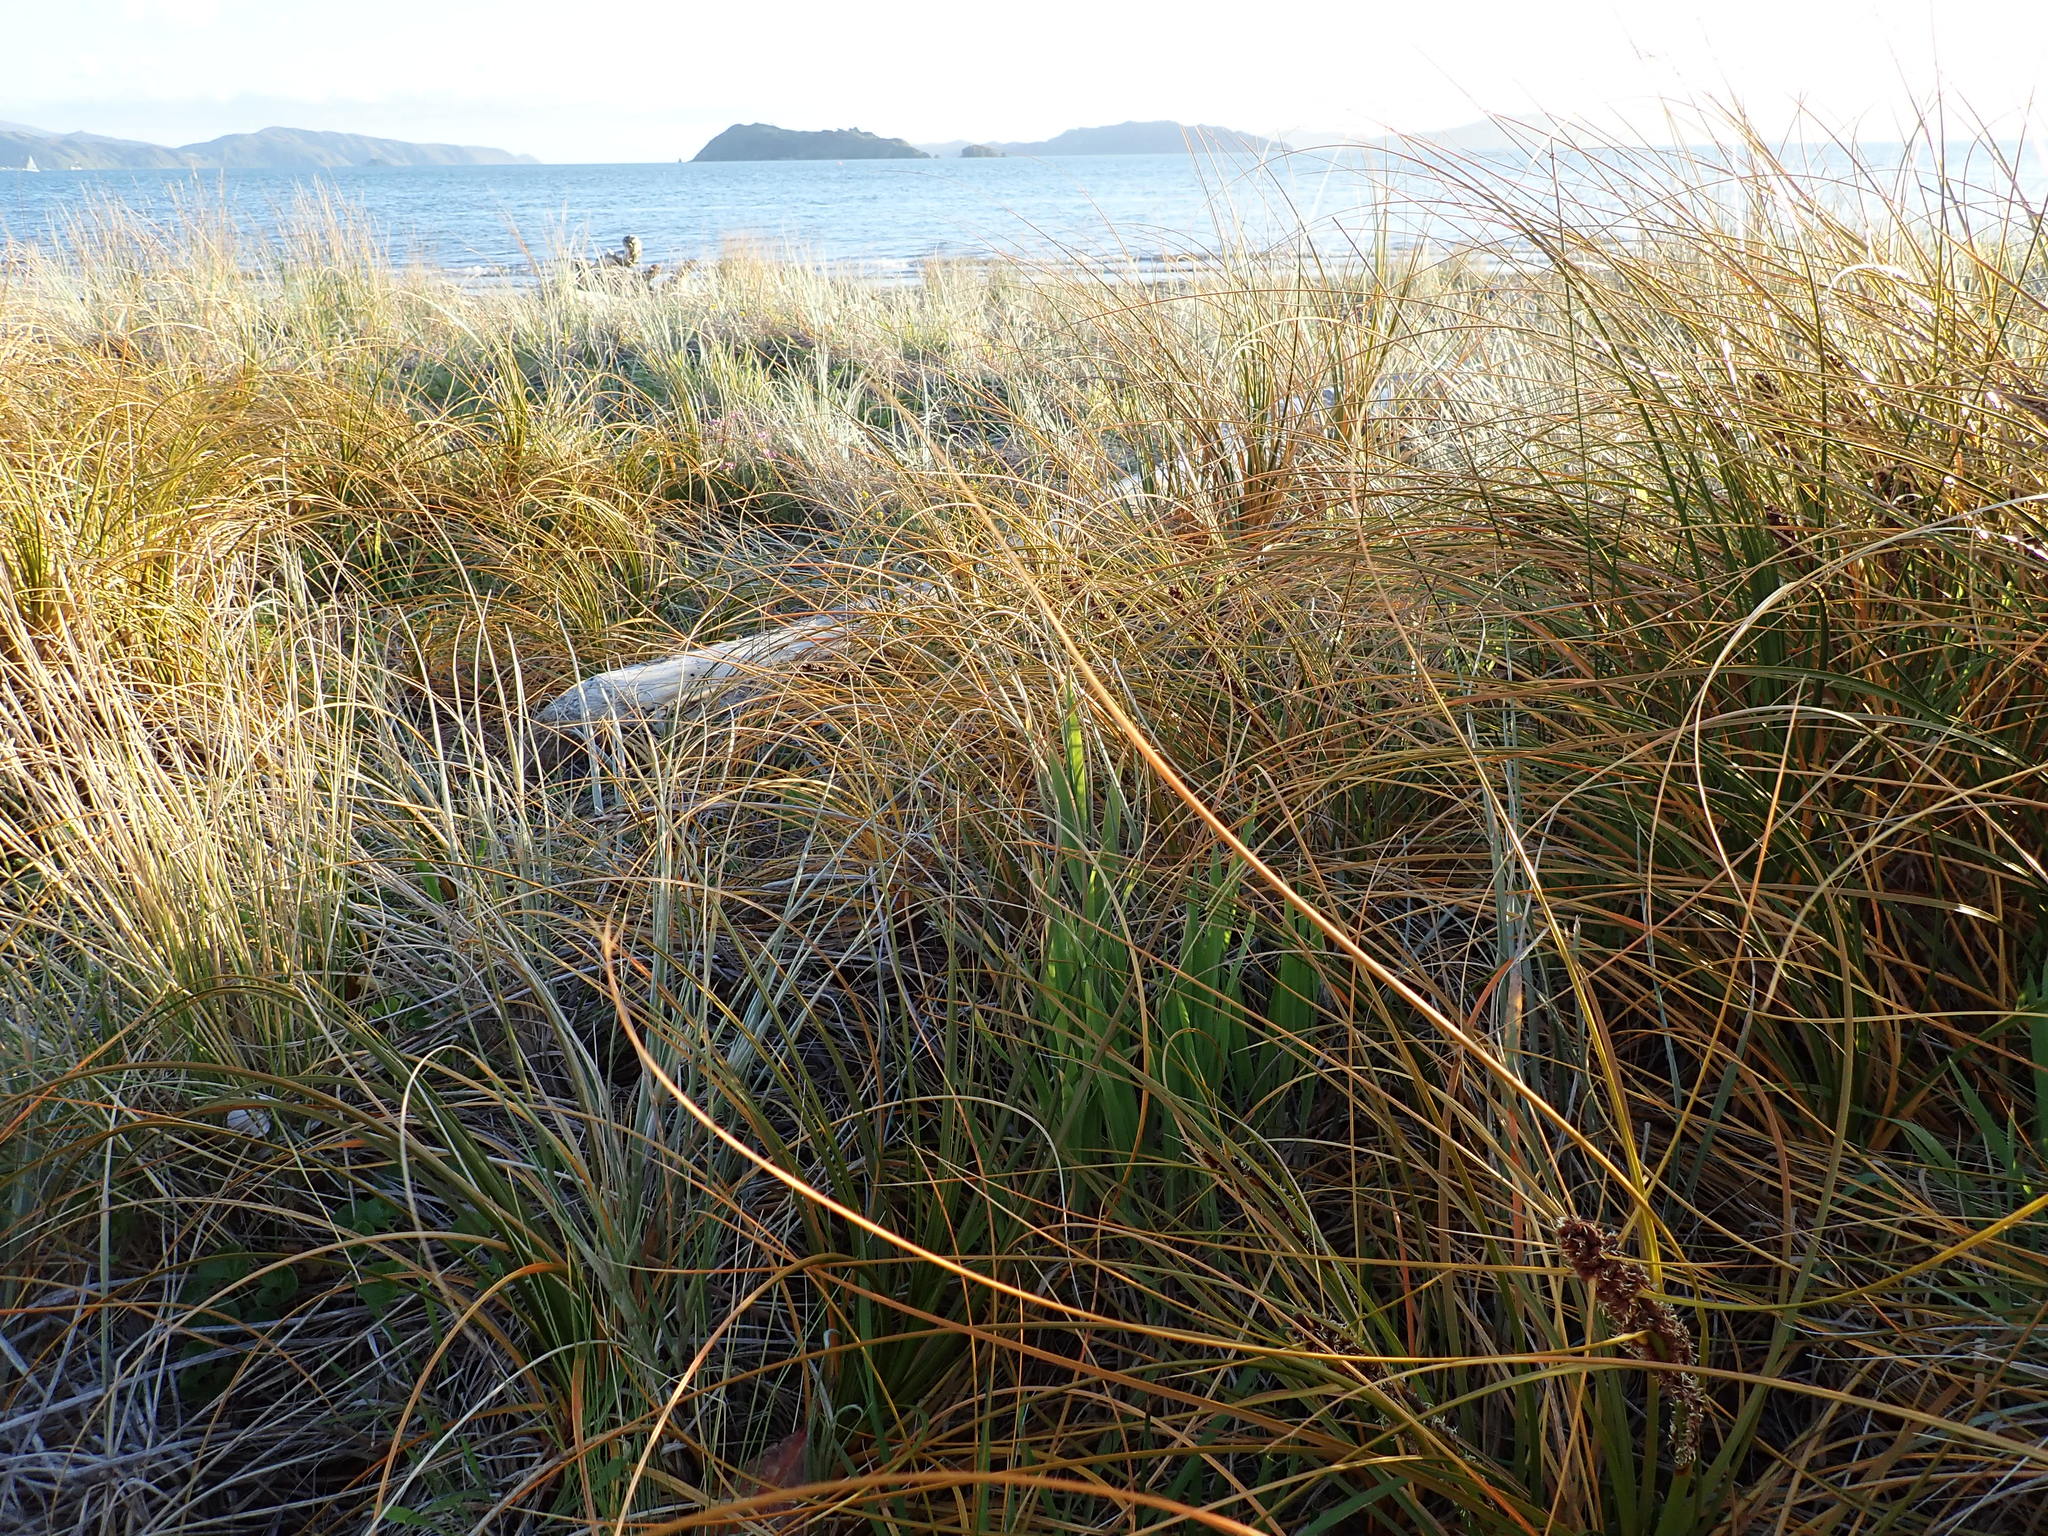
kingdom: Plantae
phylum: Tracheophyta
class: Liliopsida
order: Poales
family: Cyperaceae
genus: Ficinia
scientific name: Ficinia spiralis
